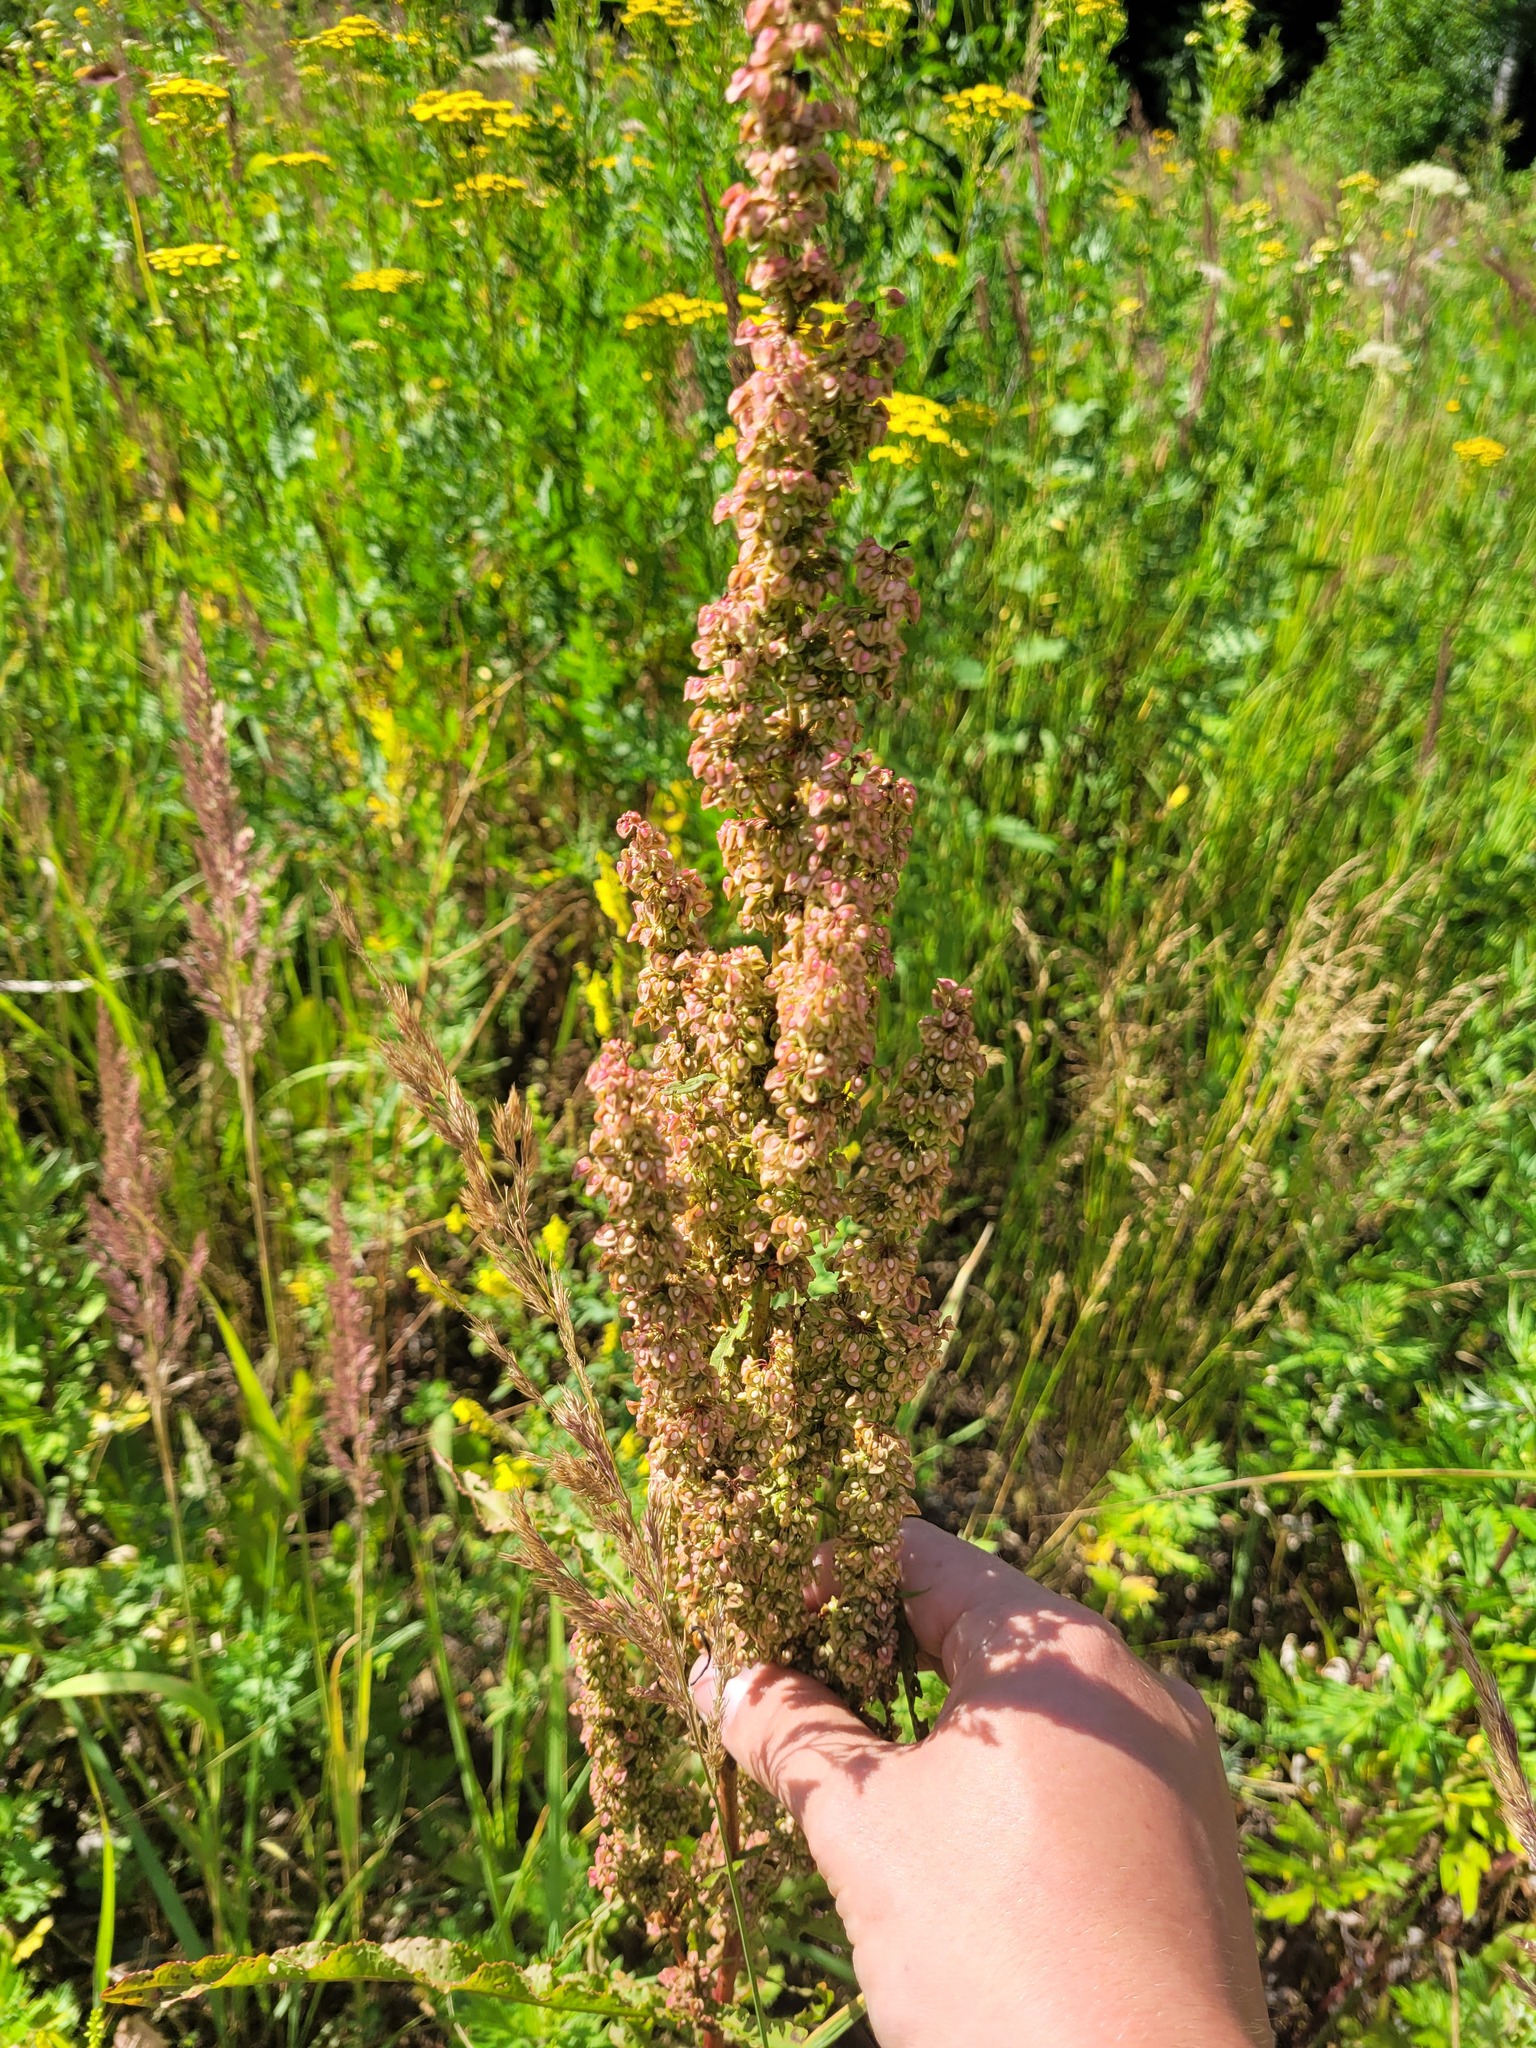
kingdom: Plantae
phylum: Tracheophyta
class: Magnoliopsida
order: Caryophyllales
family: Polygonaceae
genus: Rumex
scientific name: Rumex crispus
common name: Curled dock
